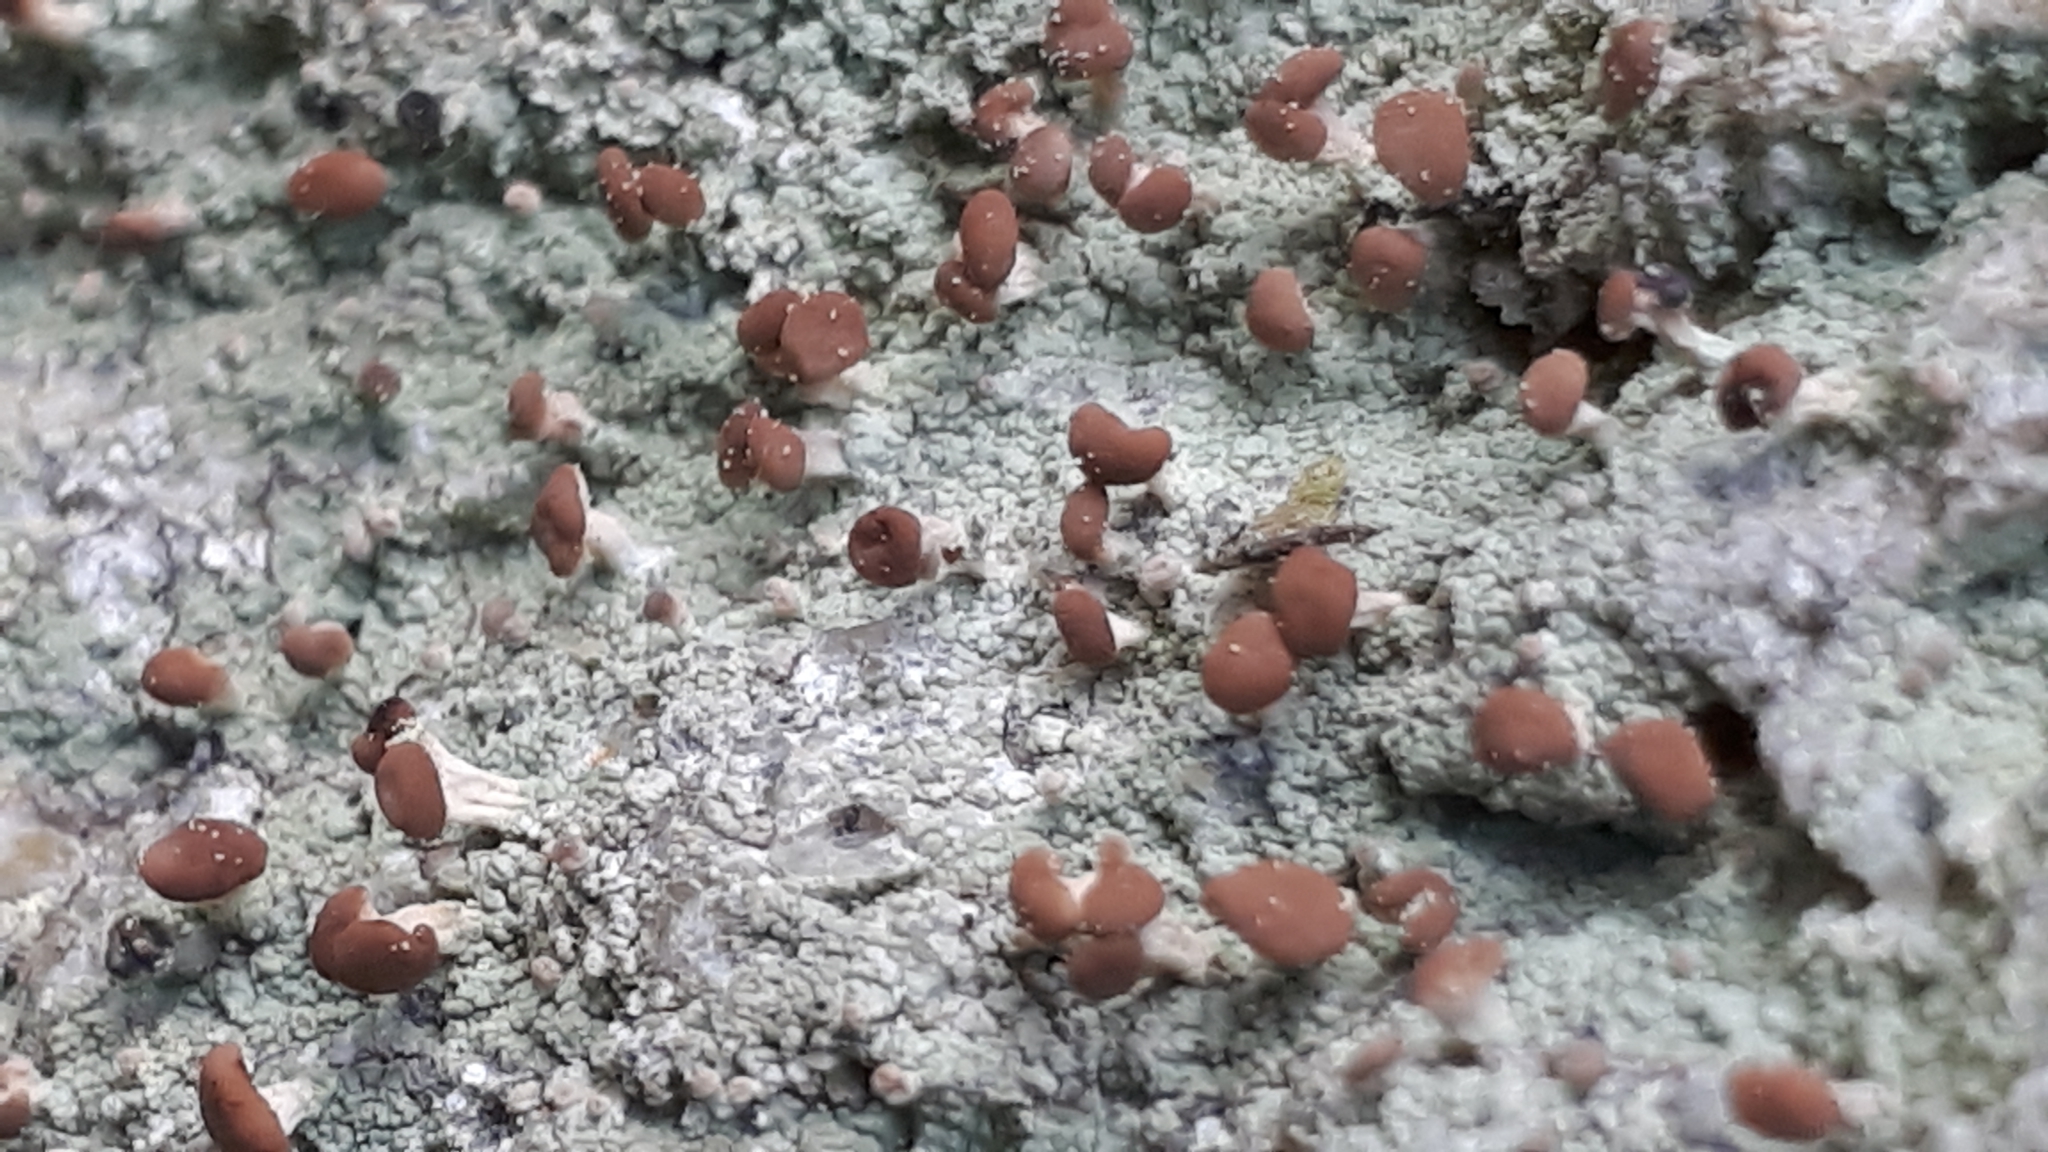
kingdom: Fungi
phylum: Ascomycota
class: Lecanoromycetes
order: Baeomycetales
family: Baeomycetaceae
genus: Baeomyces
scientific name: Baeomyces rufus
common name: Brown beret lichen
